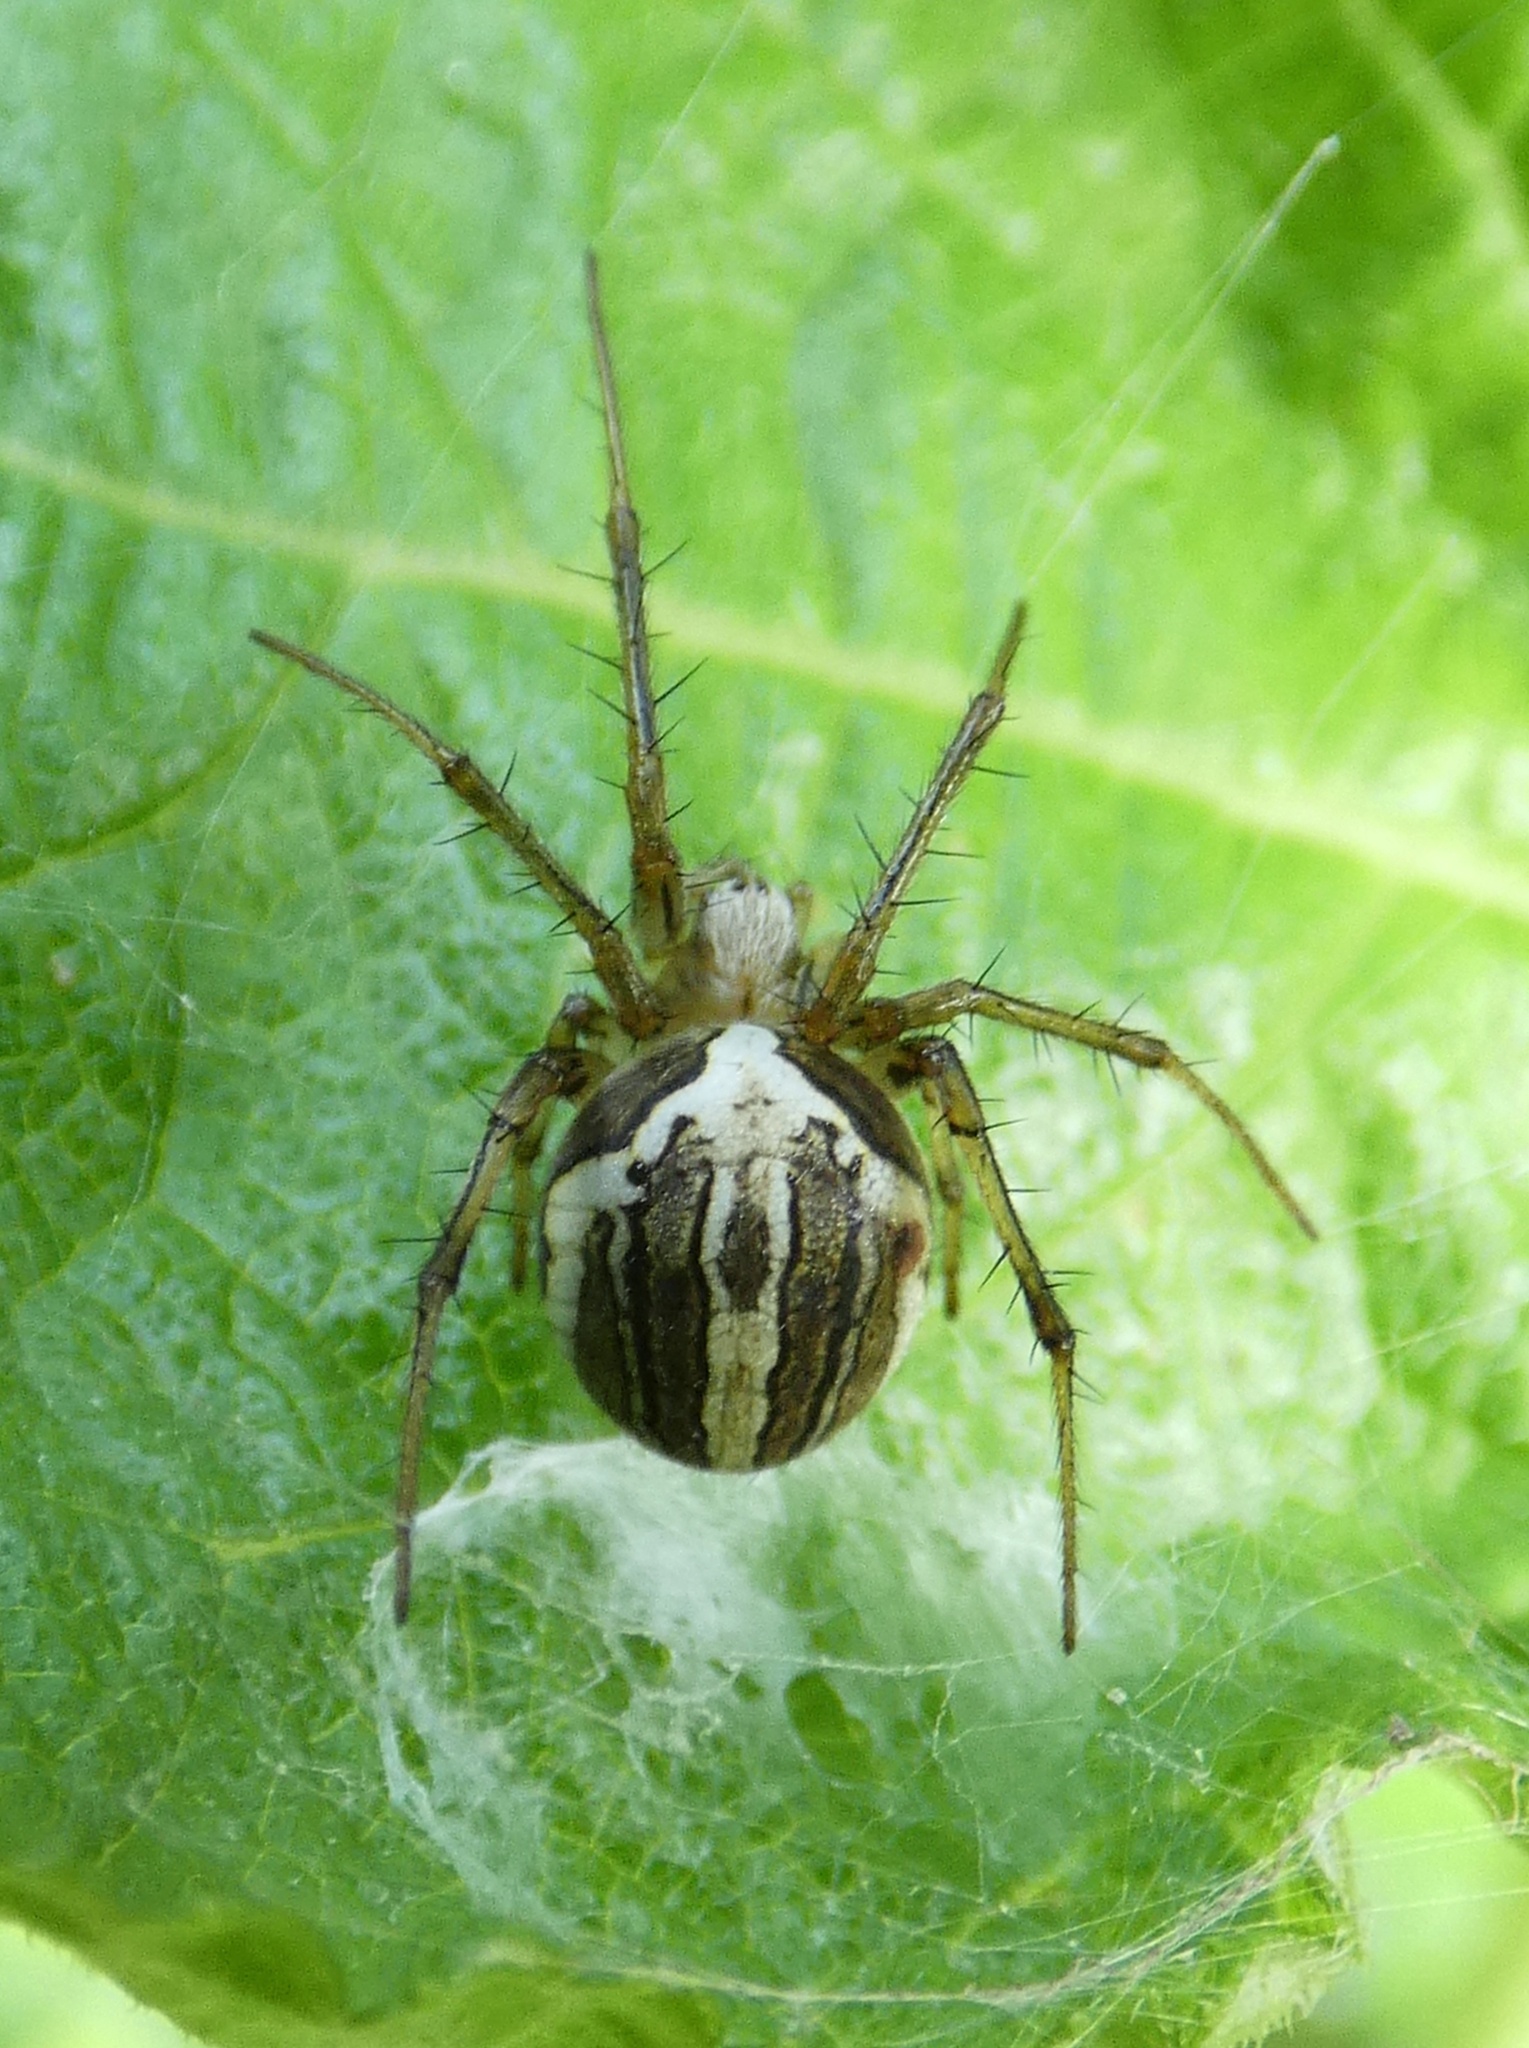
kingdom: Animalia
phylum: Arthropoda
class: Arachnida
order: Araneae
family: Araneidae
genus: Neoscona
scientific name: Neoscona molemensis
